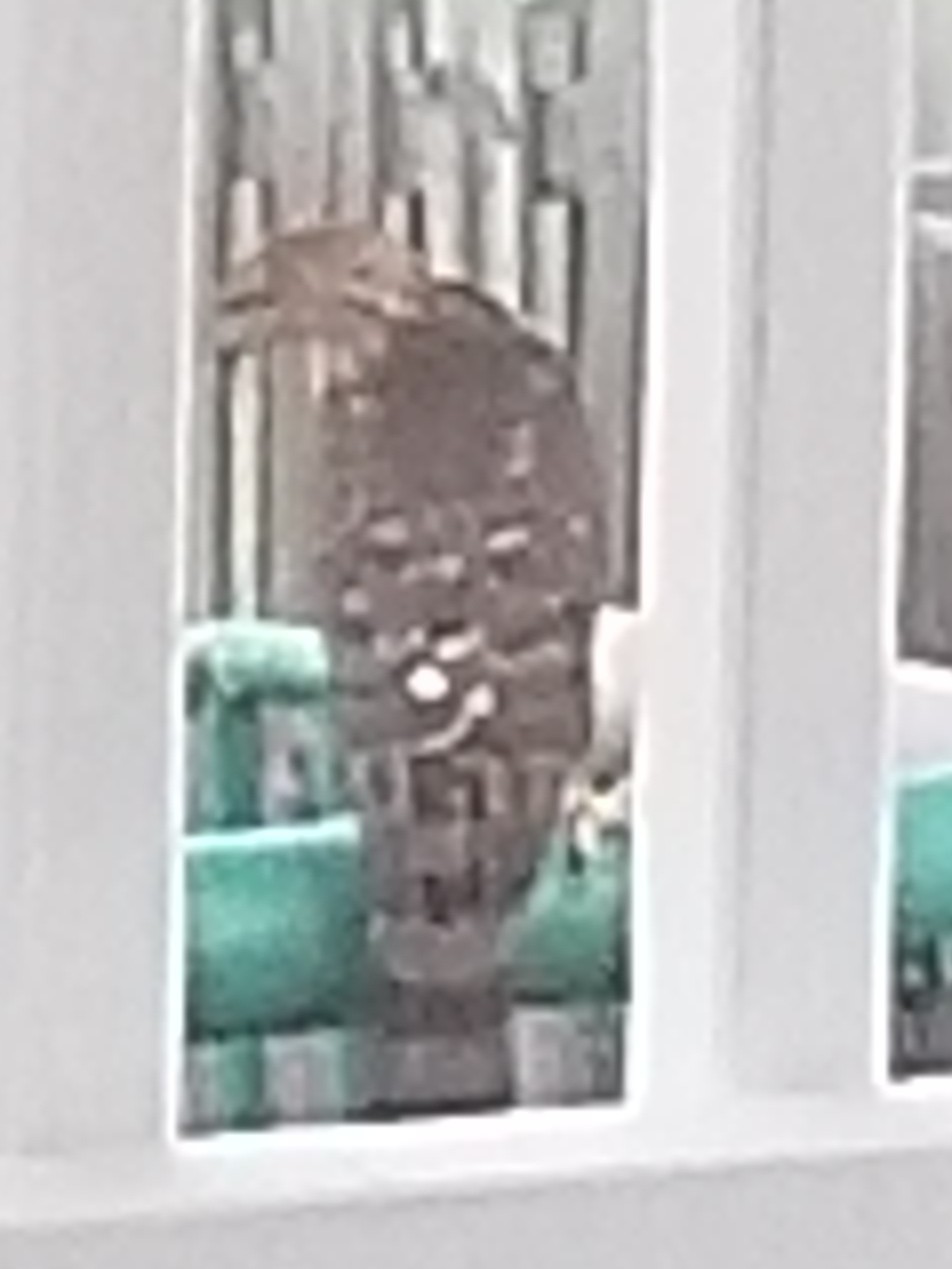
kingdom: Animalia
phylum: Chordata
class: Aves
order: Accipitriformes
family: Accipitridae
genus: Accipiter
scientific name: Accipiter cooperii
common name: Cooper's hawk
